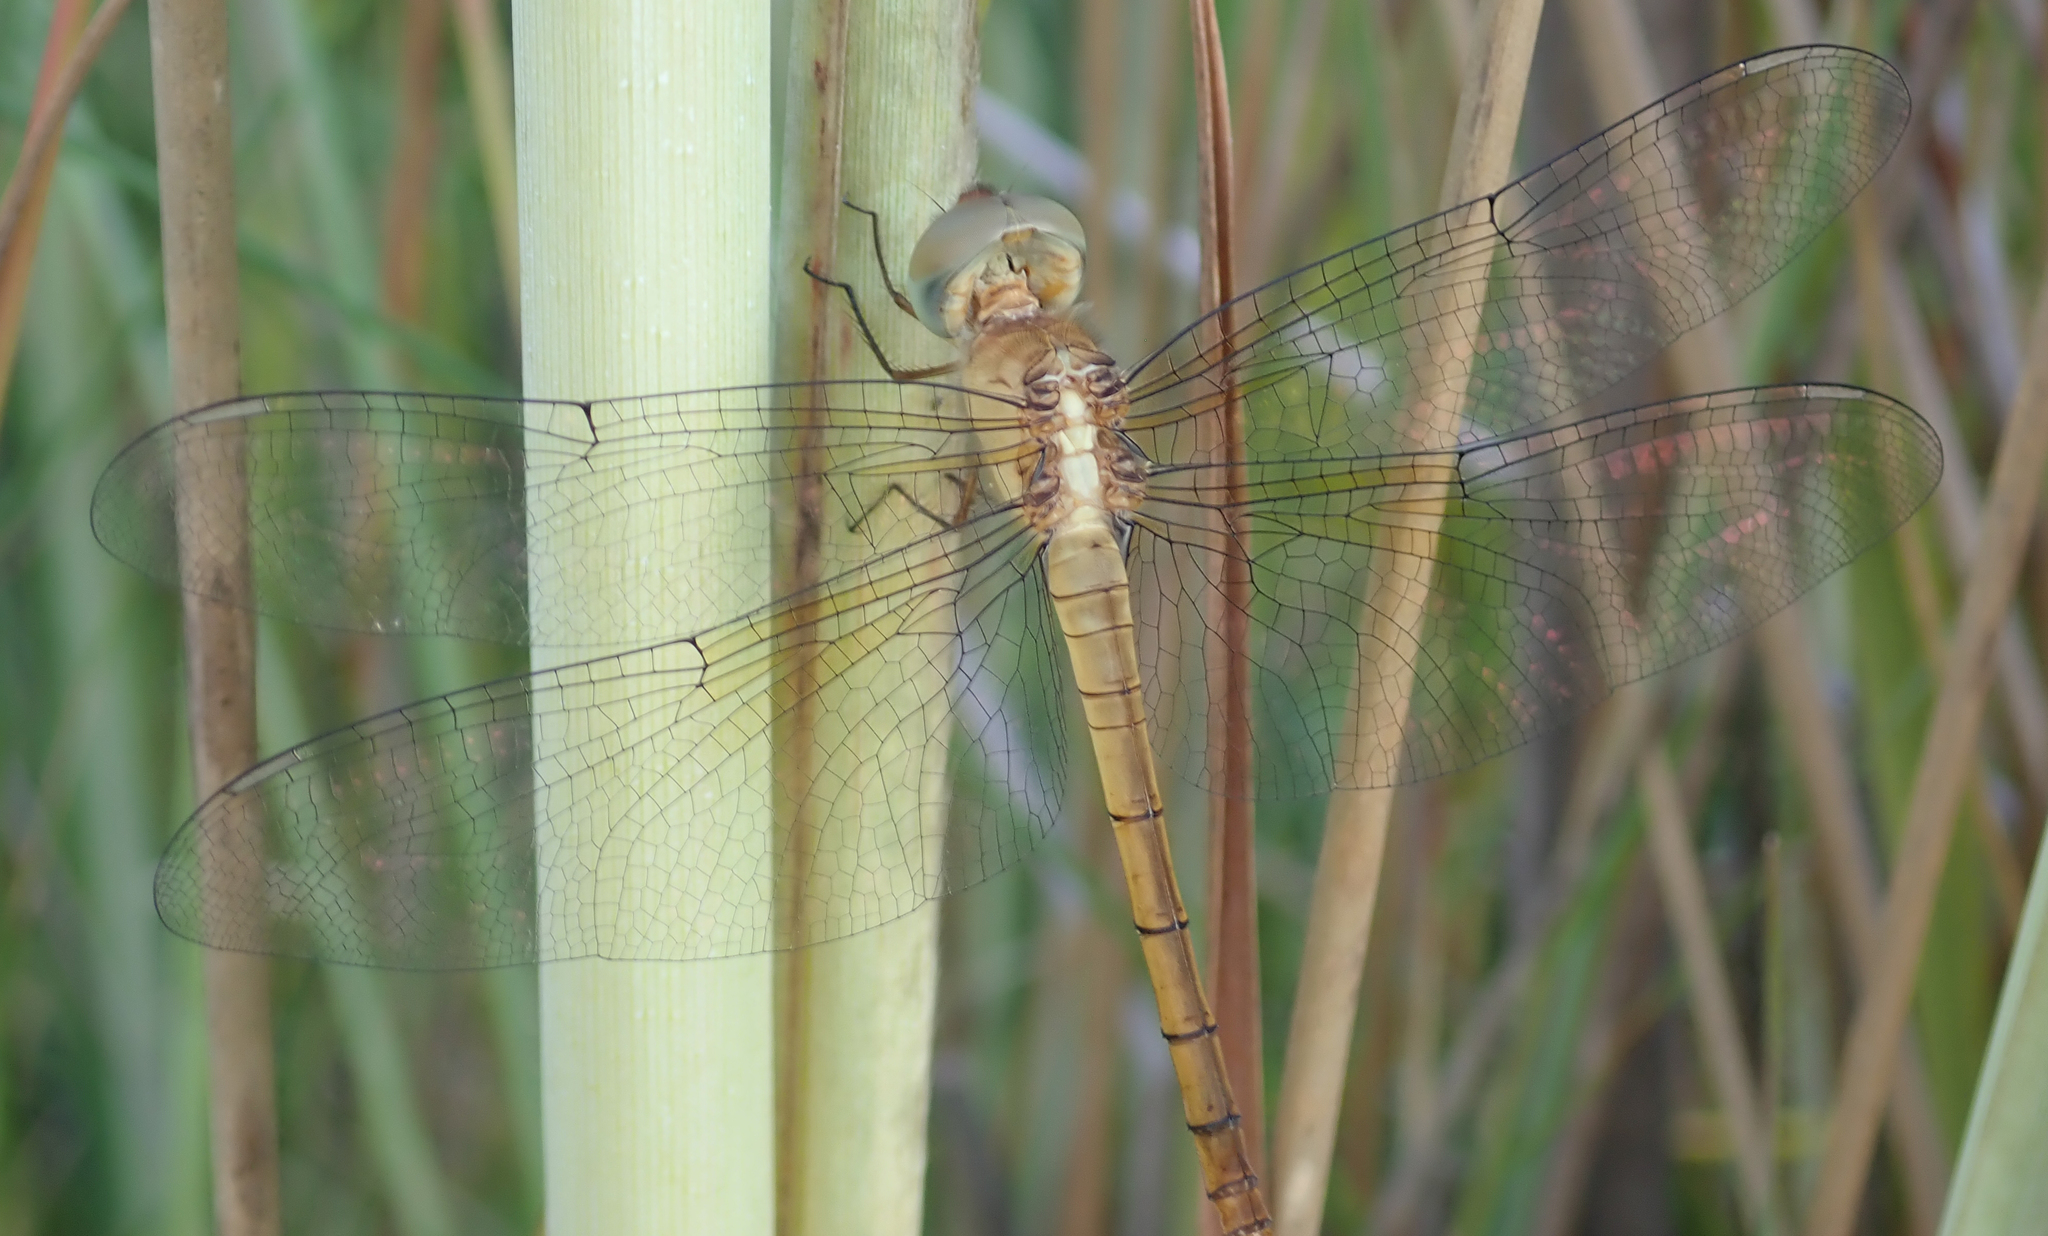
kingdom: Animalia
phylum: Arthropoda
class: Insecta
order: Odonata
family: Libellulidae
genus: Tholymis
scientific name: Tholymis tillarga
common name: Coral-tailed cloud wing
